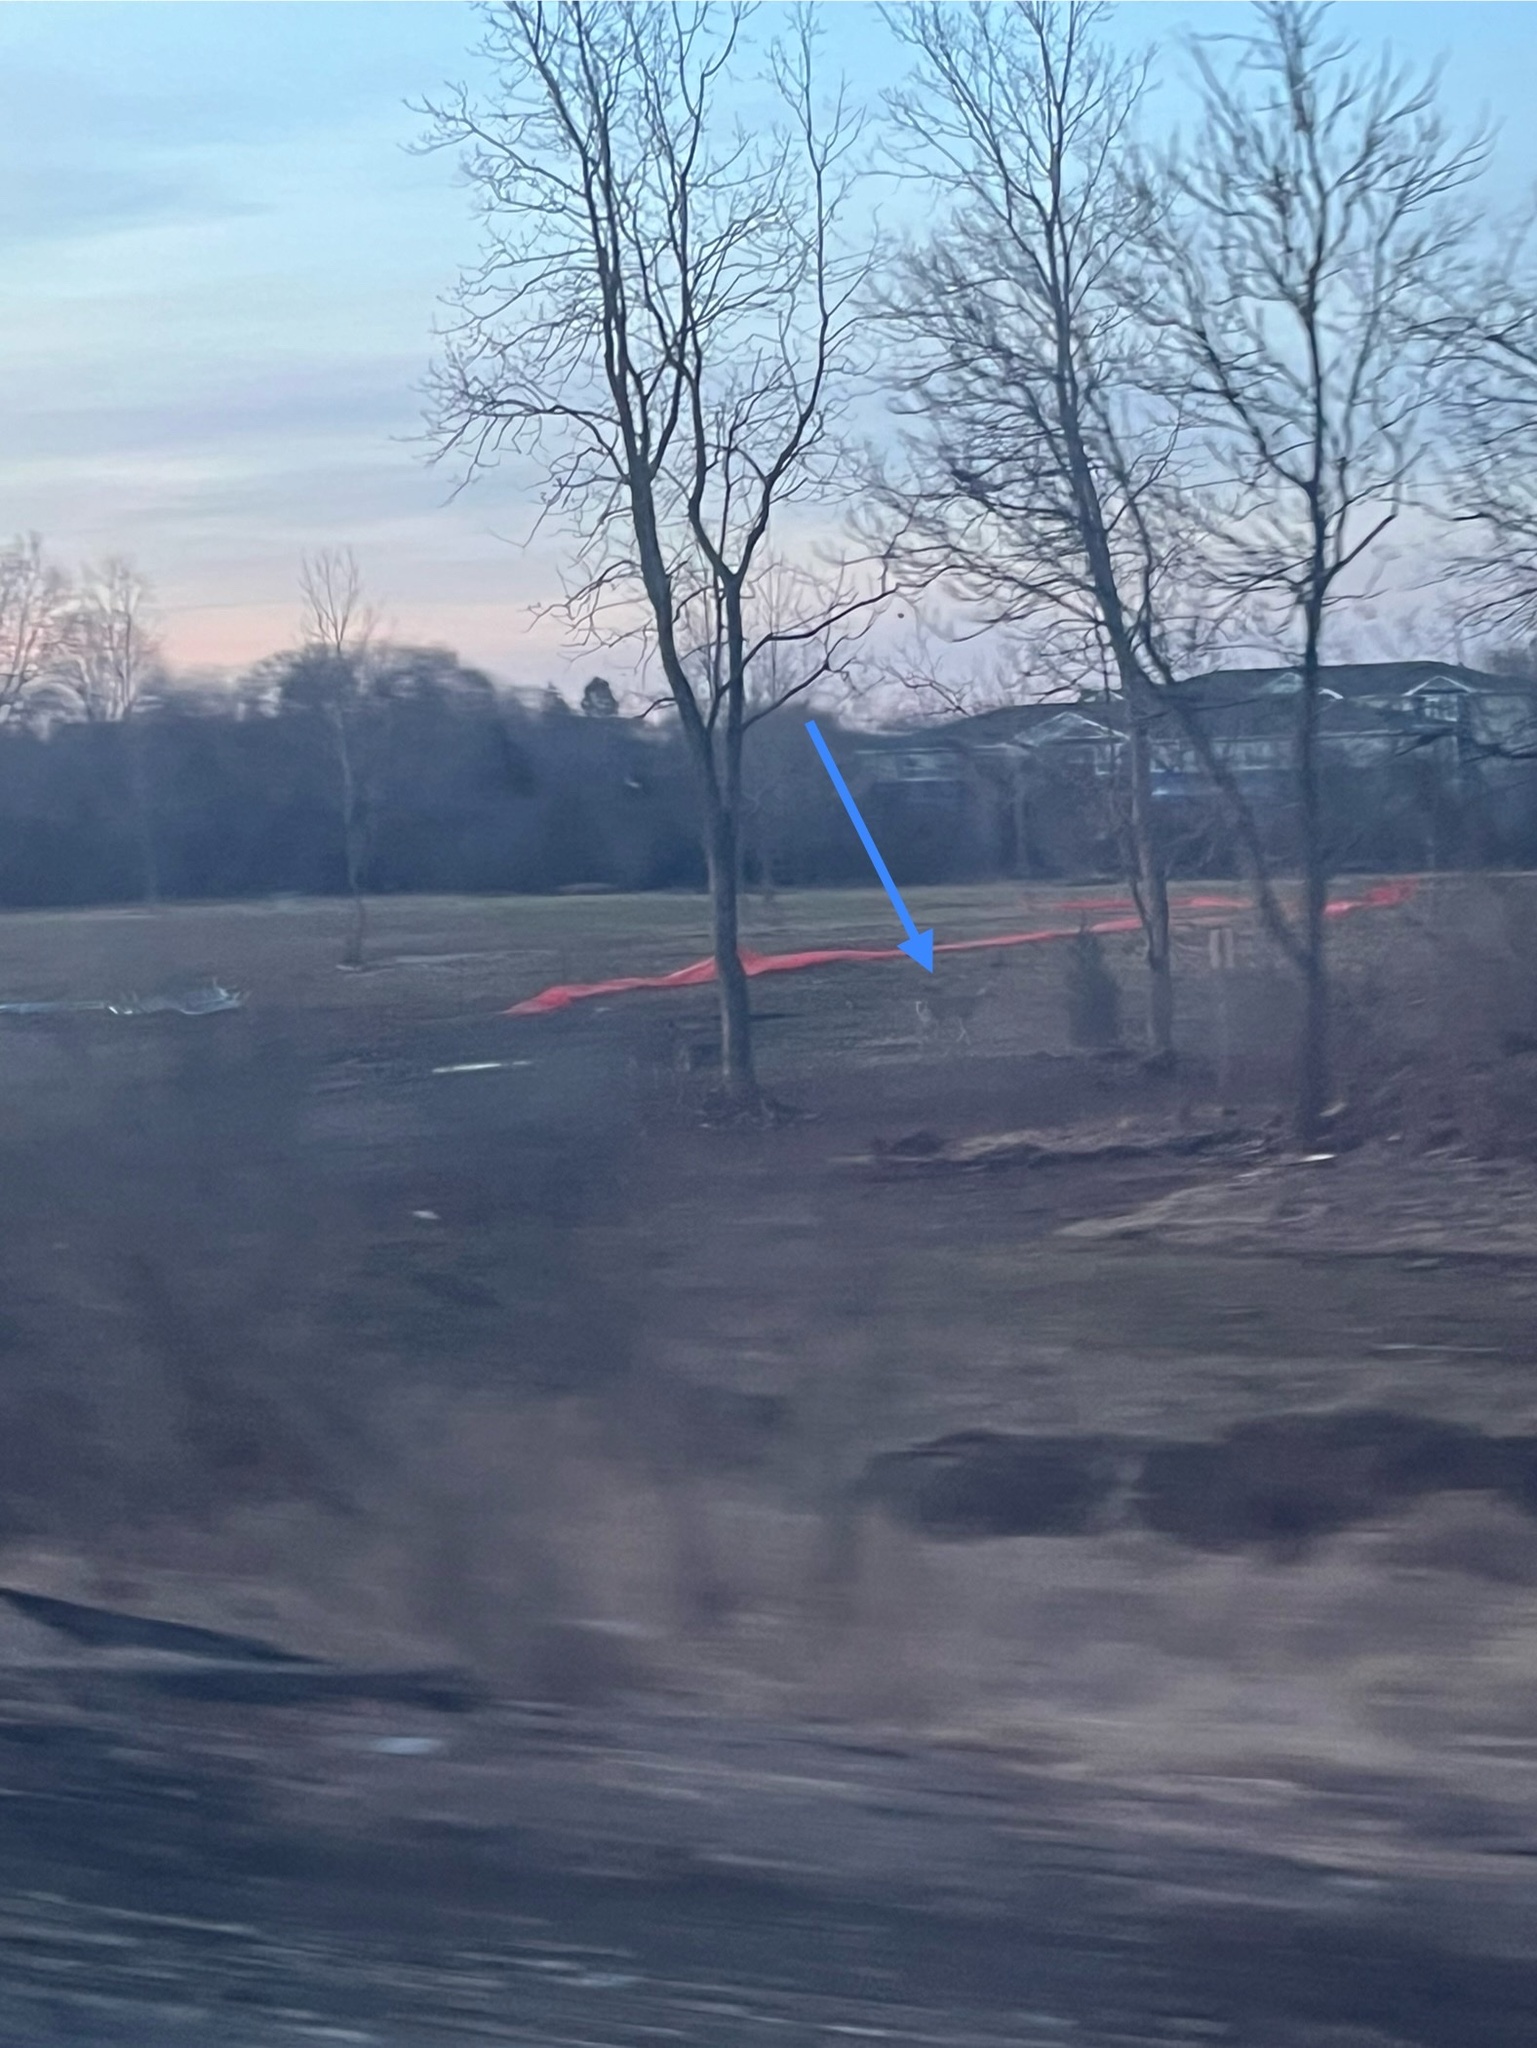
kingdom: Animalia
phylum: Chordata
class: Mammalia
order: Artiodactyla
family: Cervidae
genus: Odocoileus
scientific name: Odocoileus virginianus
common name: White-tailed deer
